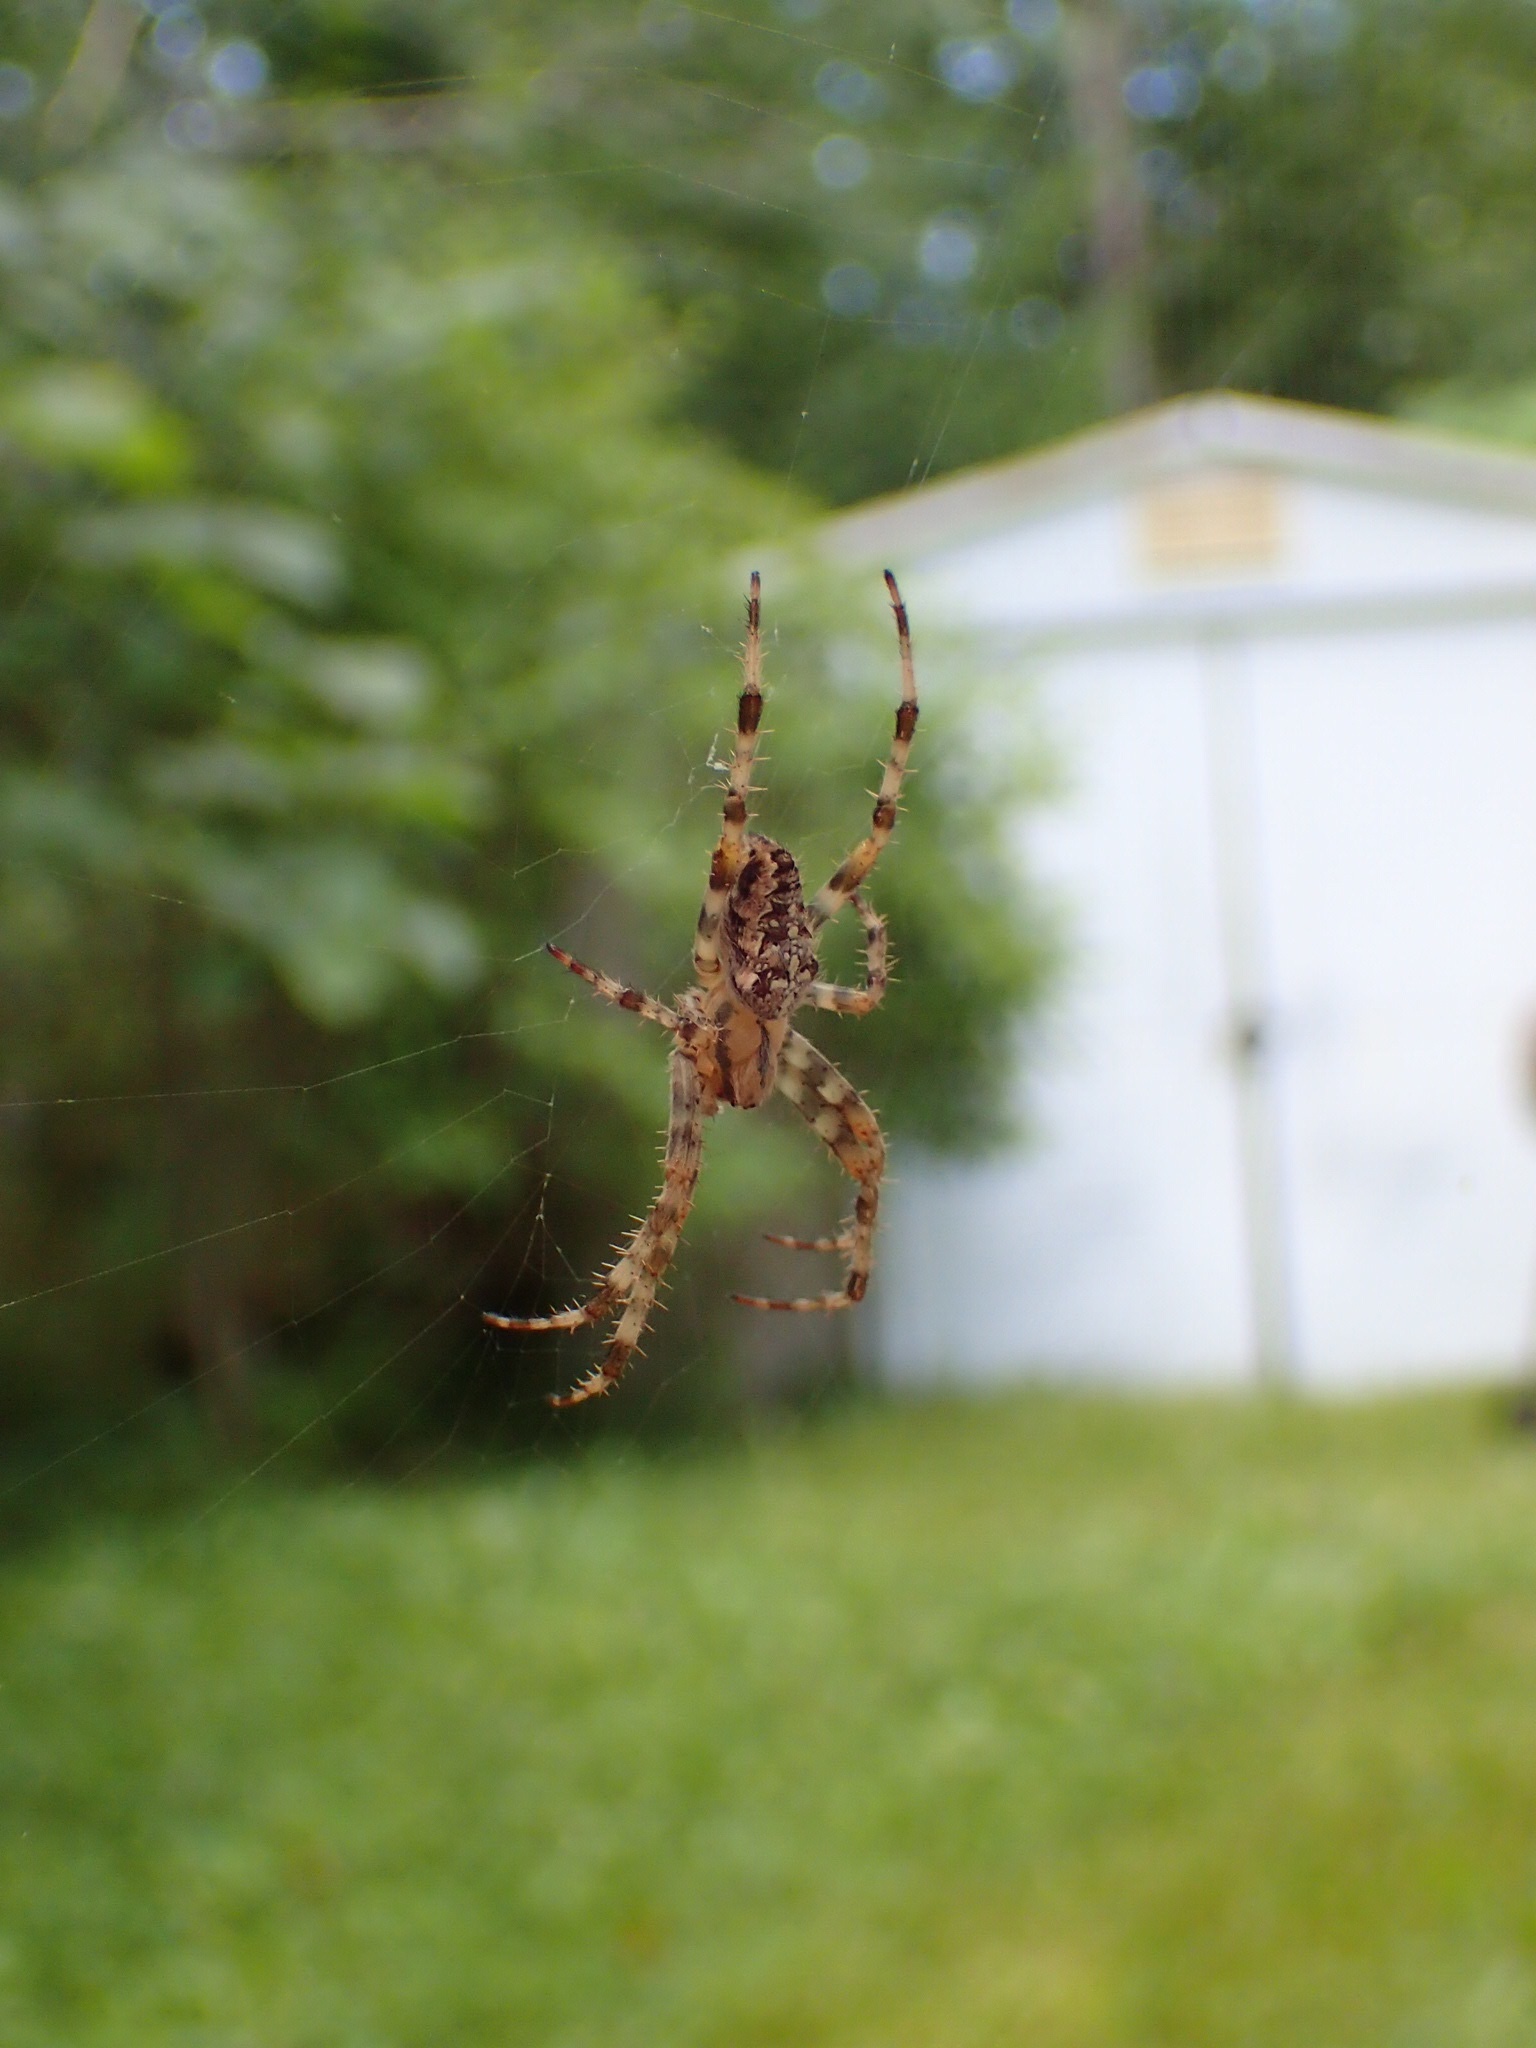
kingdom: Animalia
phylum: Arthropoda
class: Arachnida
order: Araneae
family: Araneidae
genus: Araneus
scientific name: Araneus diadematus
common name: Cross orbweaver
